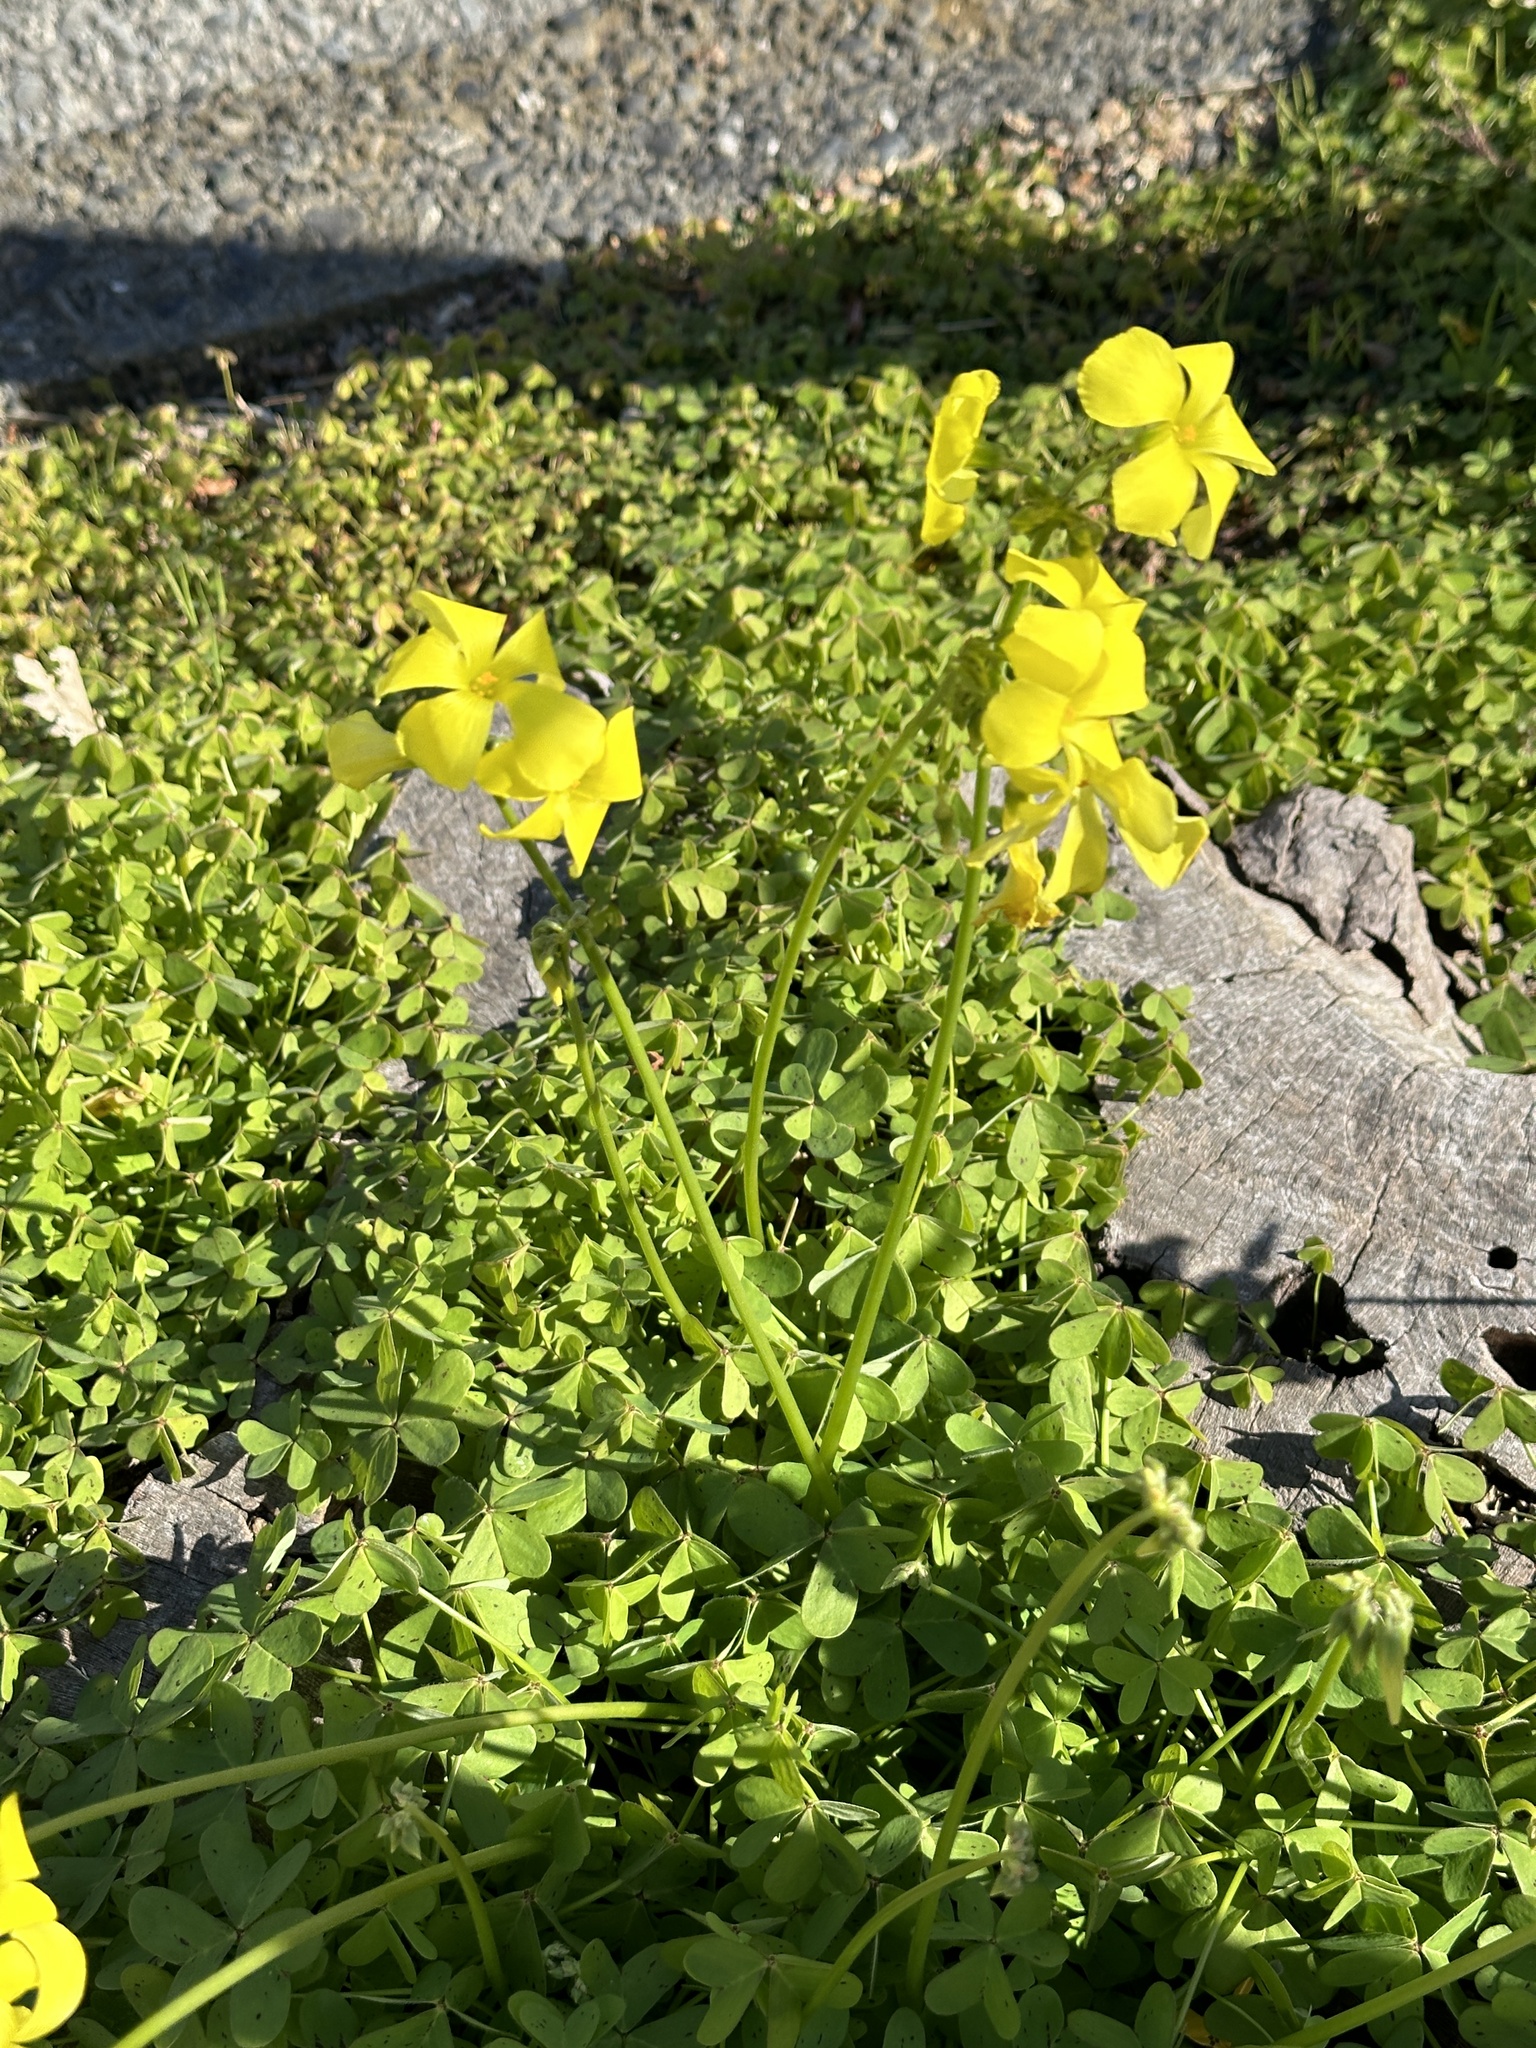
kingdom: Plantae
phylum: Tracheophyta
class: Magnoliopsida
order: Oxalidales
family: Oxalidaceae
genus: Oxalis
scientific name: Oxalis pes-caprae
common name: Bermuda-buttercup
